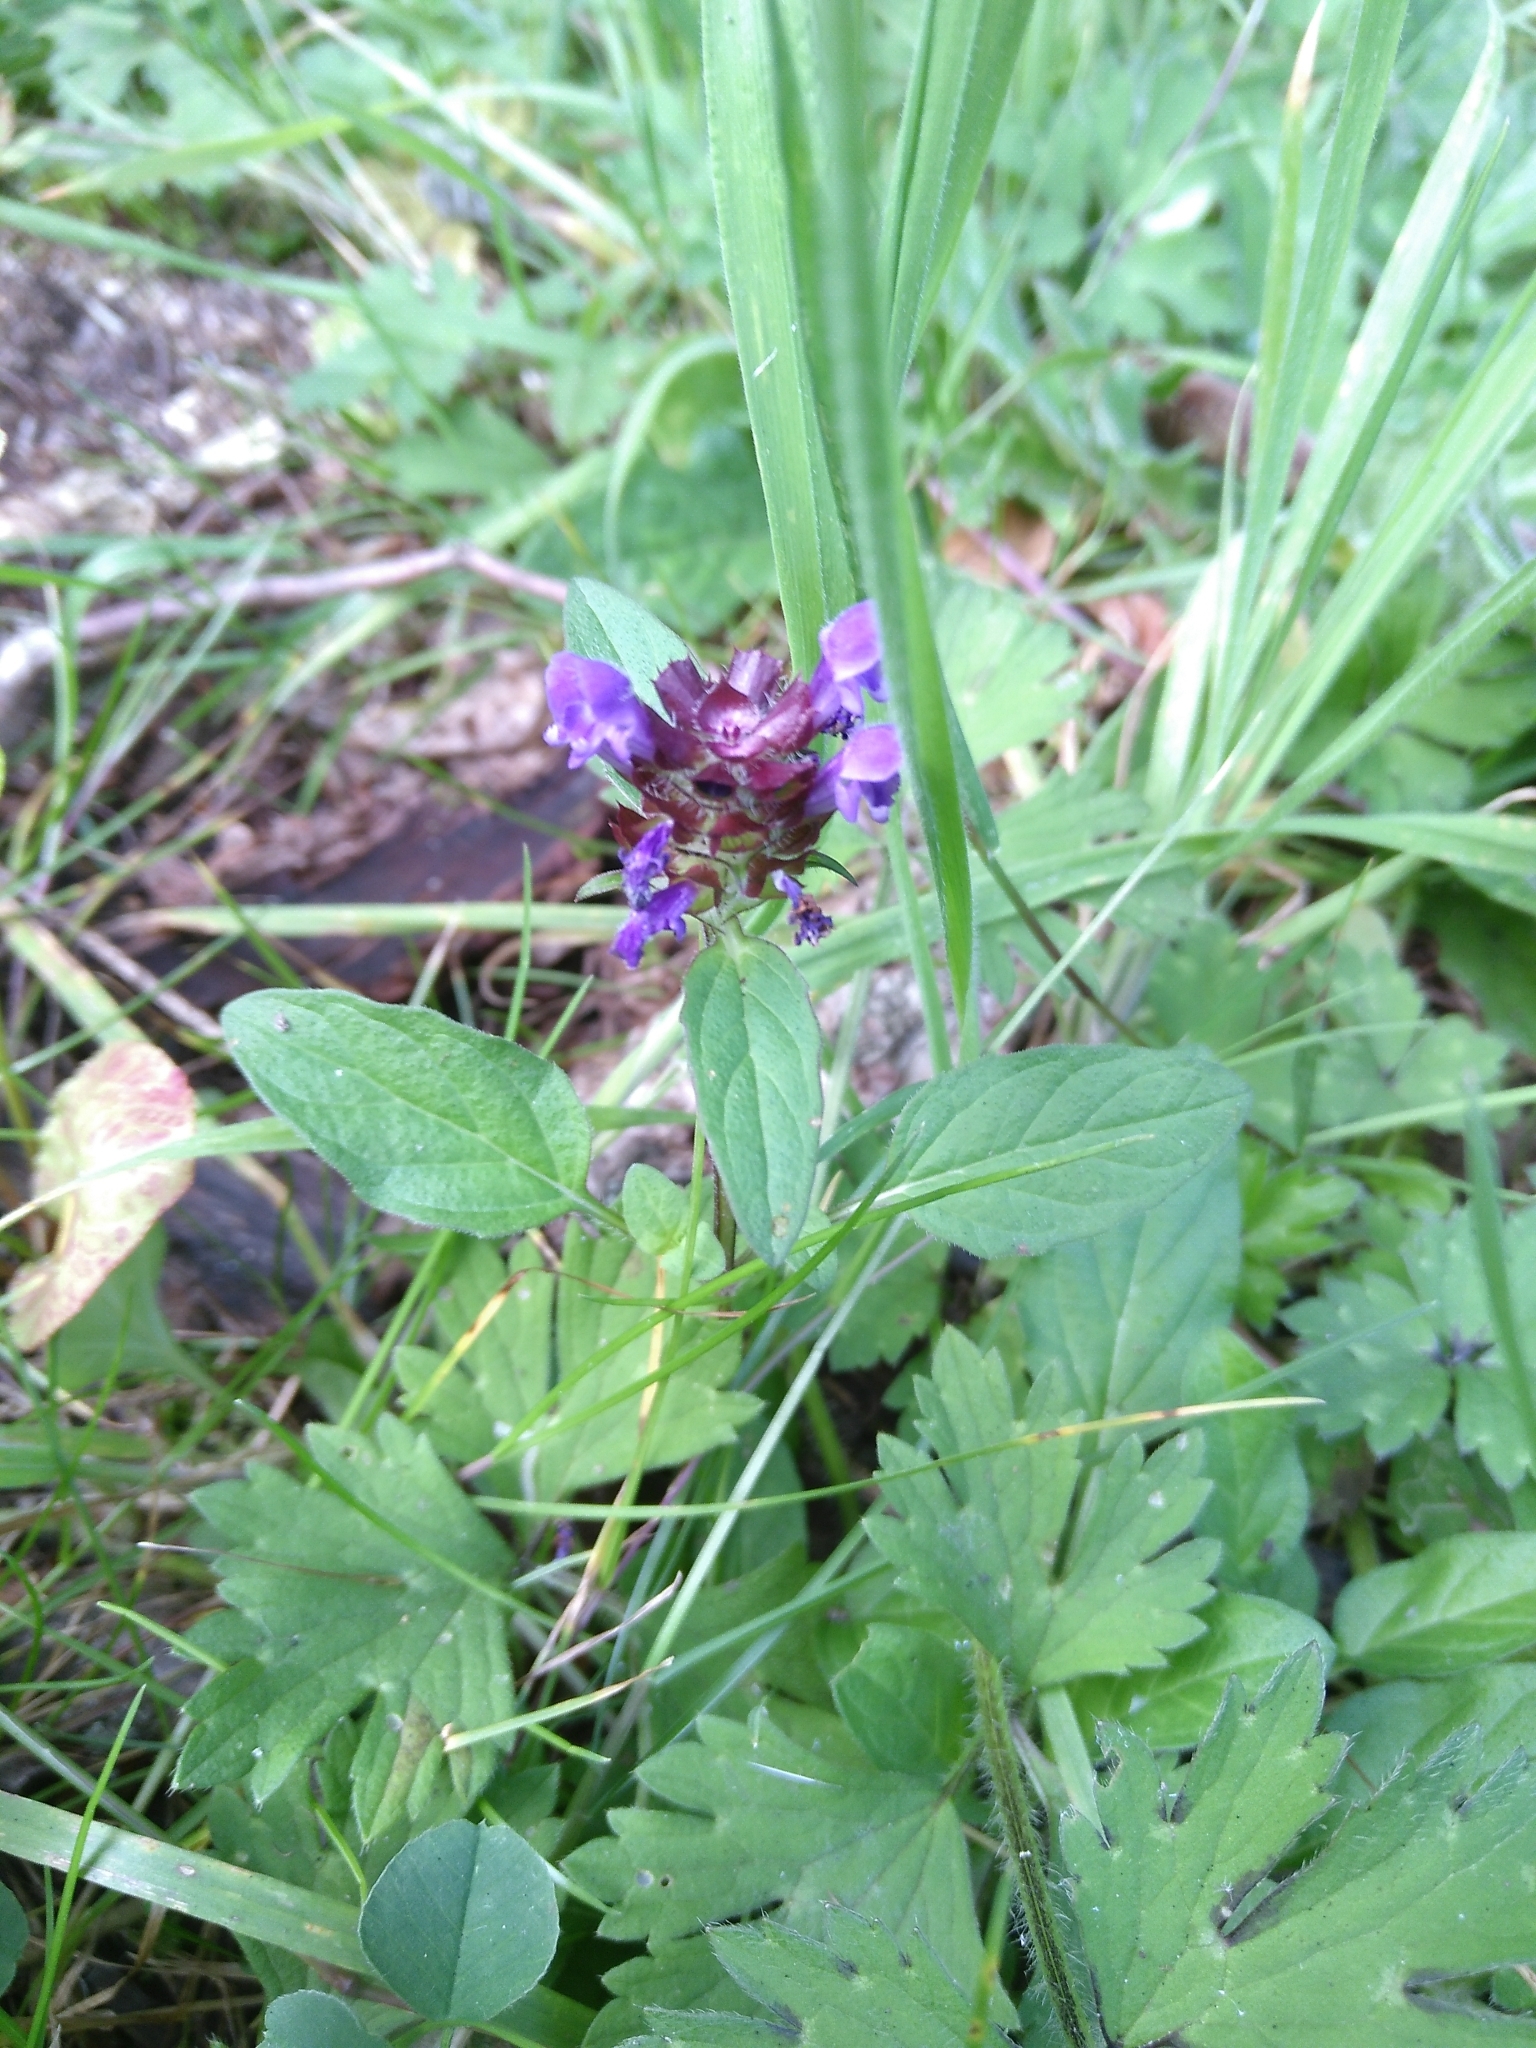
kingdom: Plantae
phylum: Tracheophyta
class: Magnoliopsida
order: Lamiales
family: Lamiaceae
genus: Prunella
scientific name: Prunella vulgaris
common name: Heal-all
